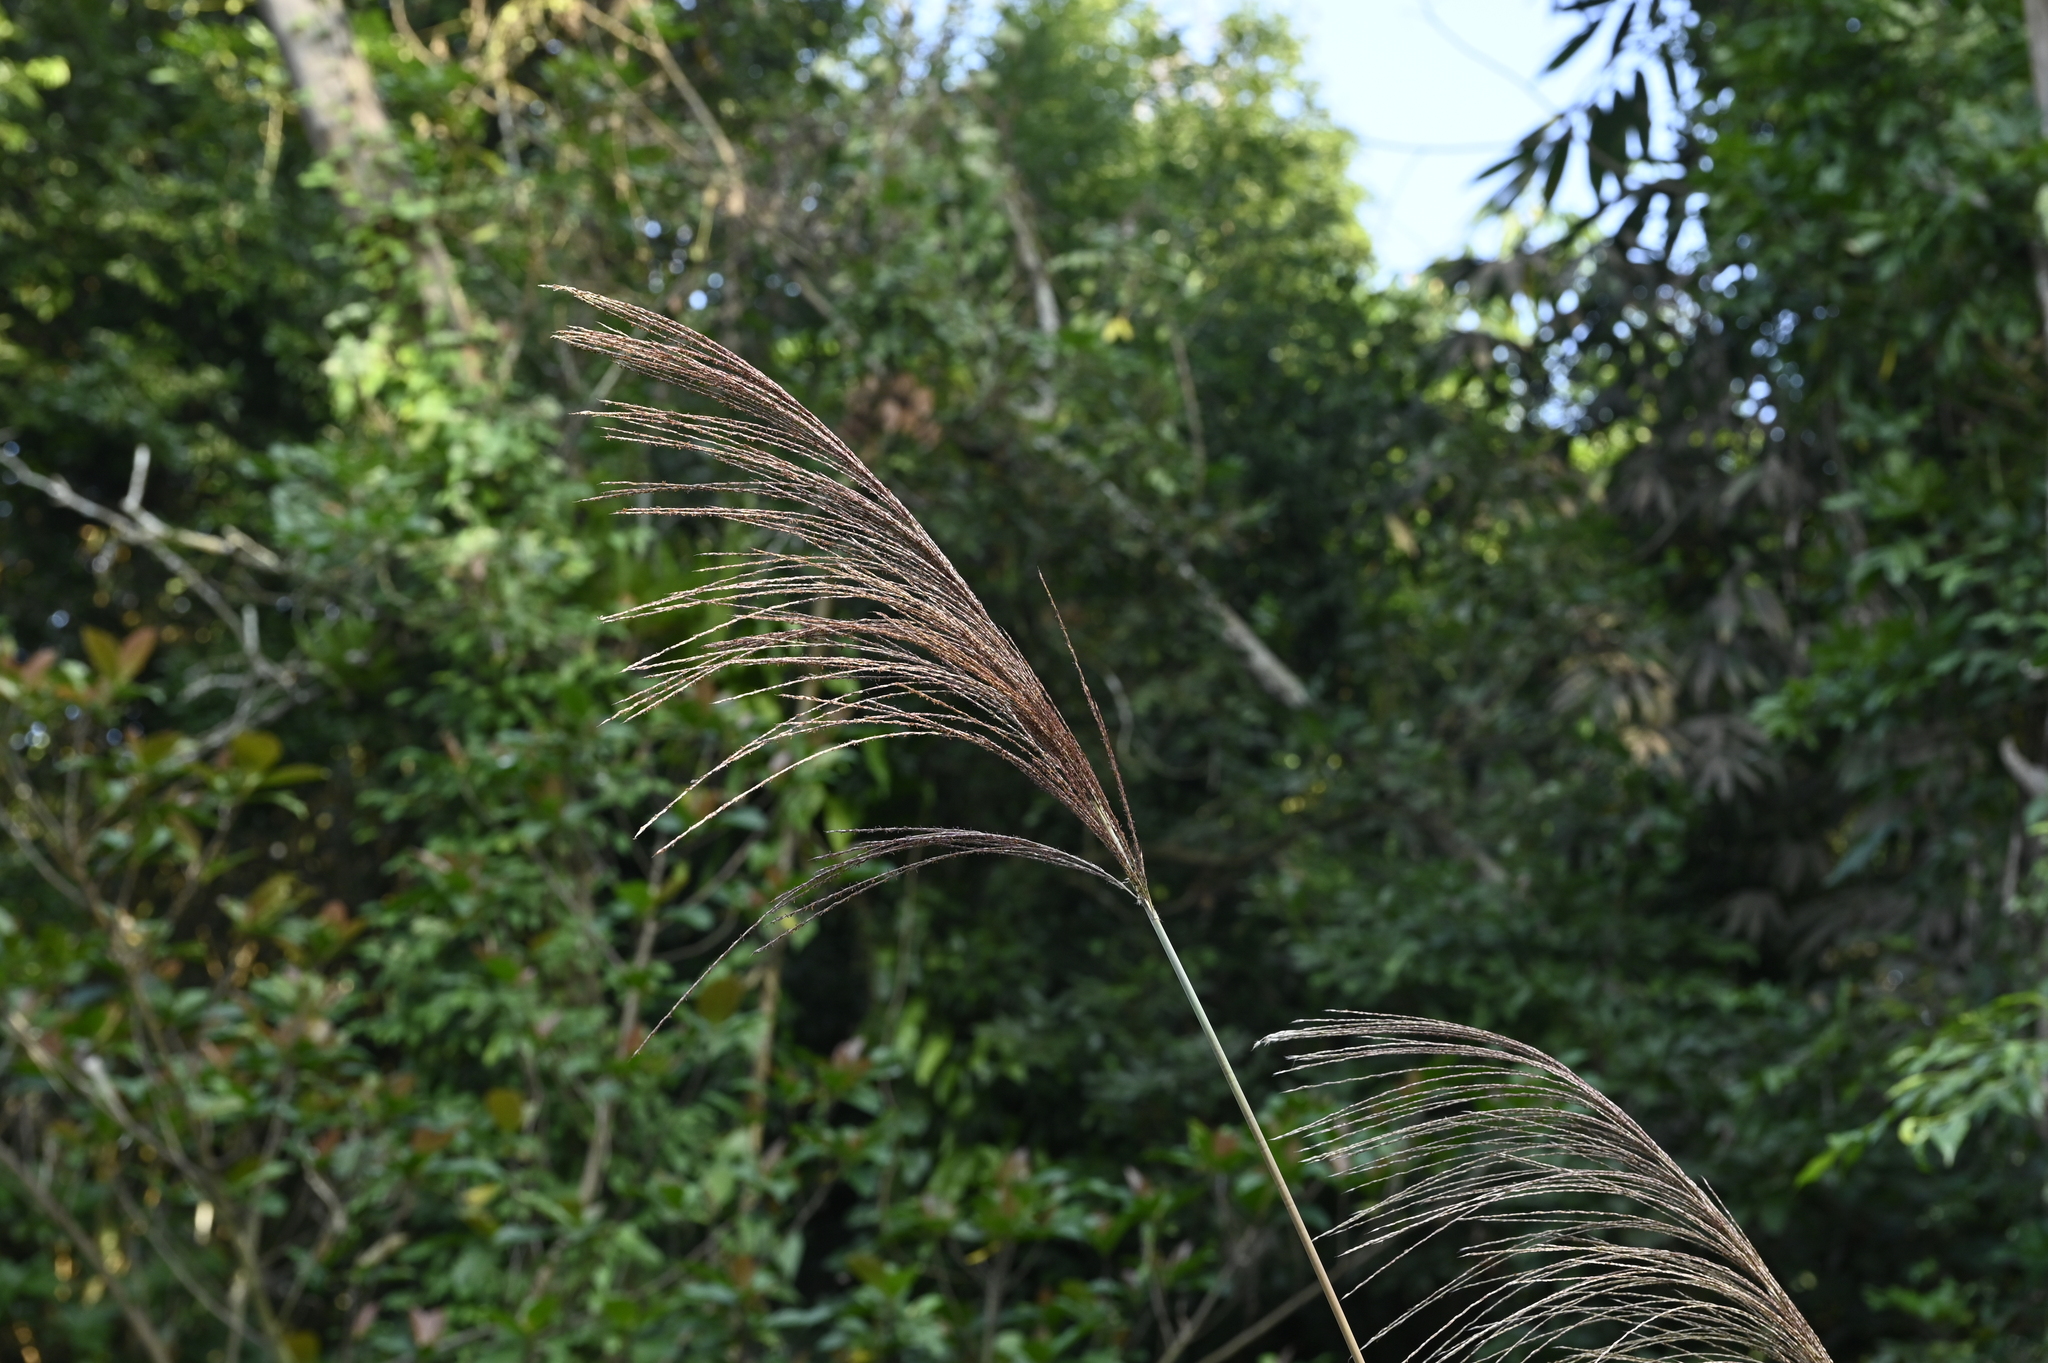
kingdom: Plantae
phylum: Tracheophyta
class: Liliopsida
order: Poales
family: Poaceae
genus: Miscanthus
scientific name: Miscanthus sinensis
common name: Chinese silvergrass
